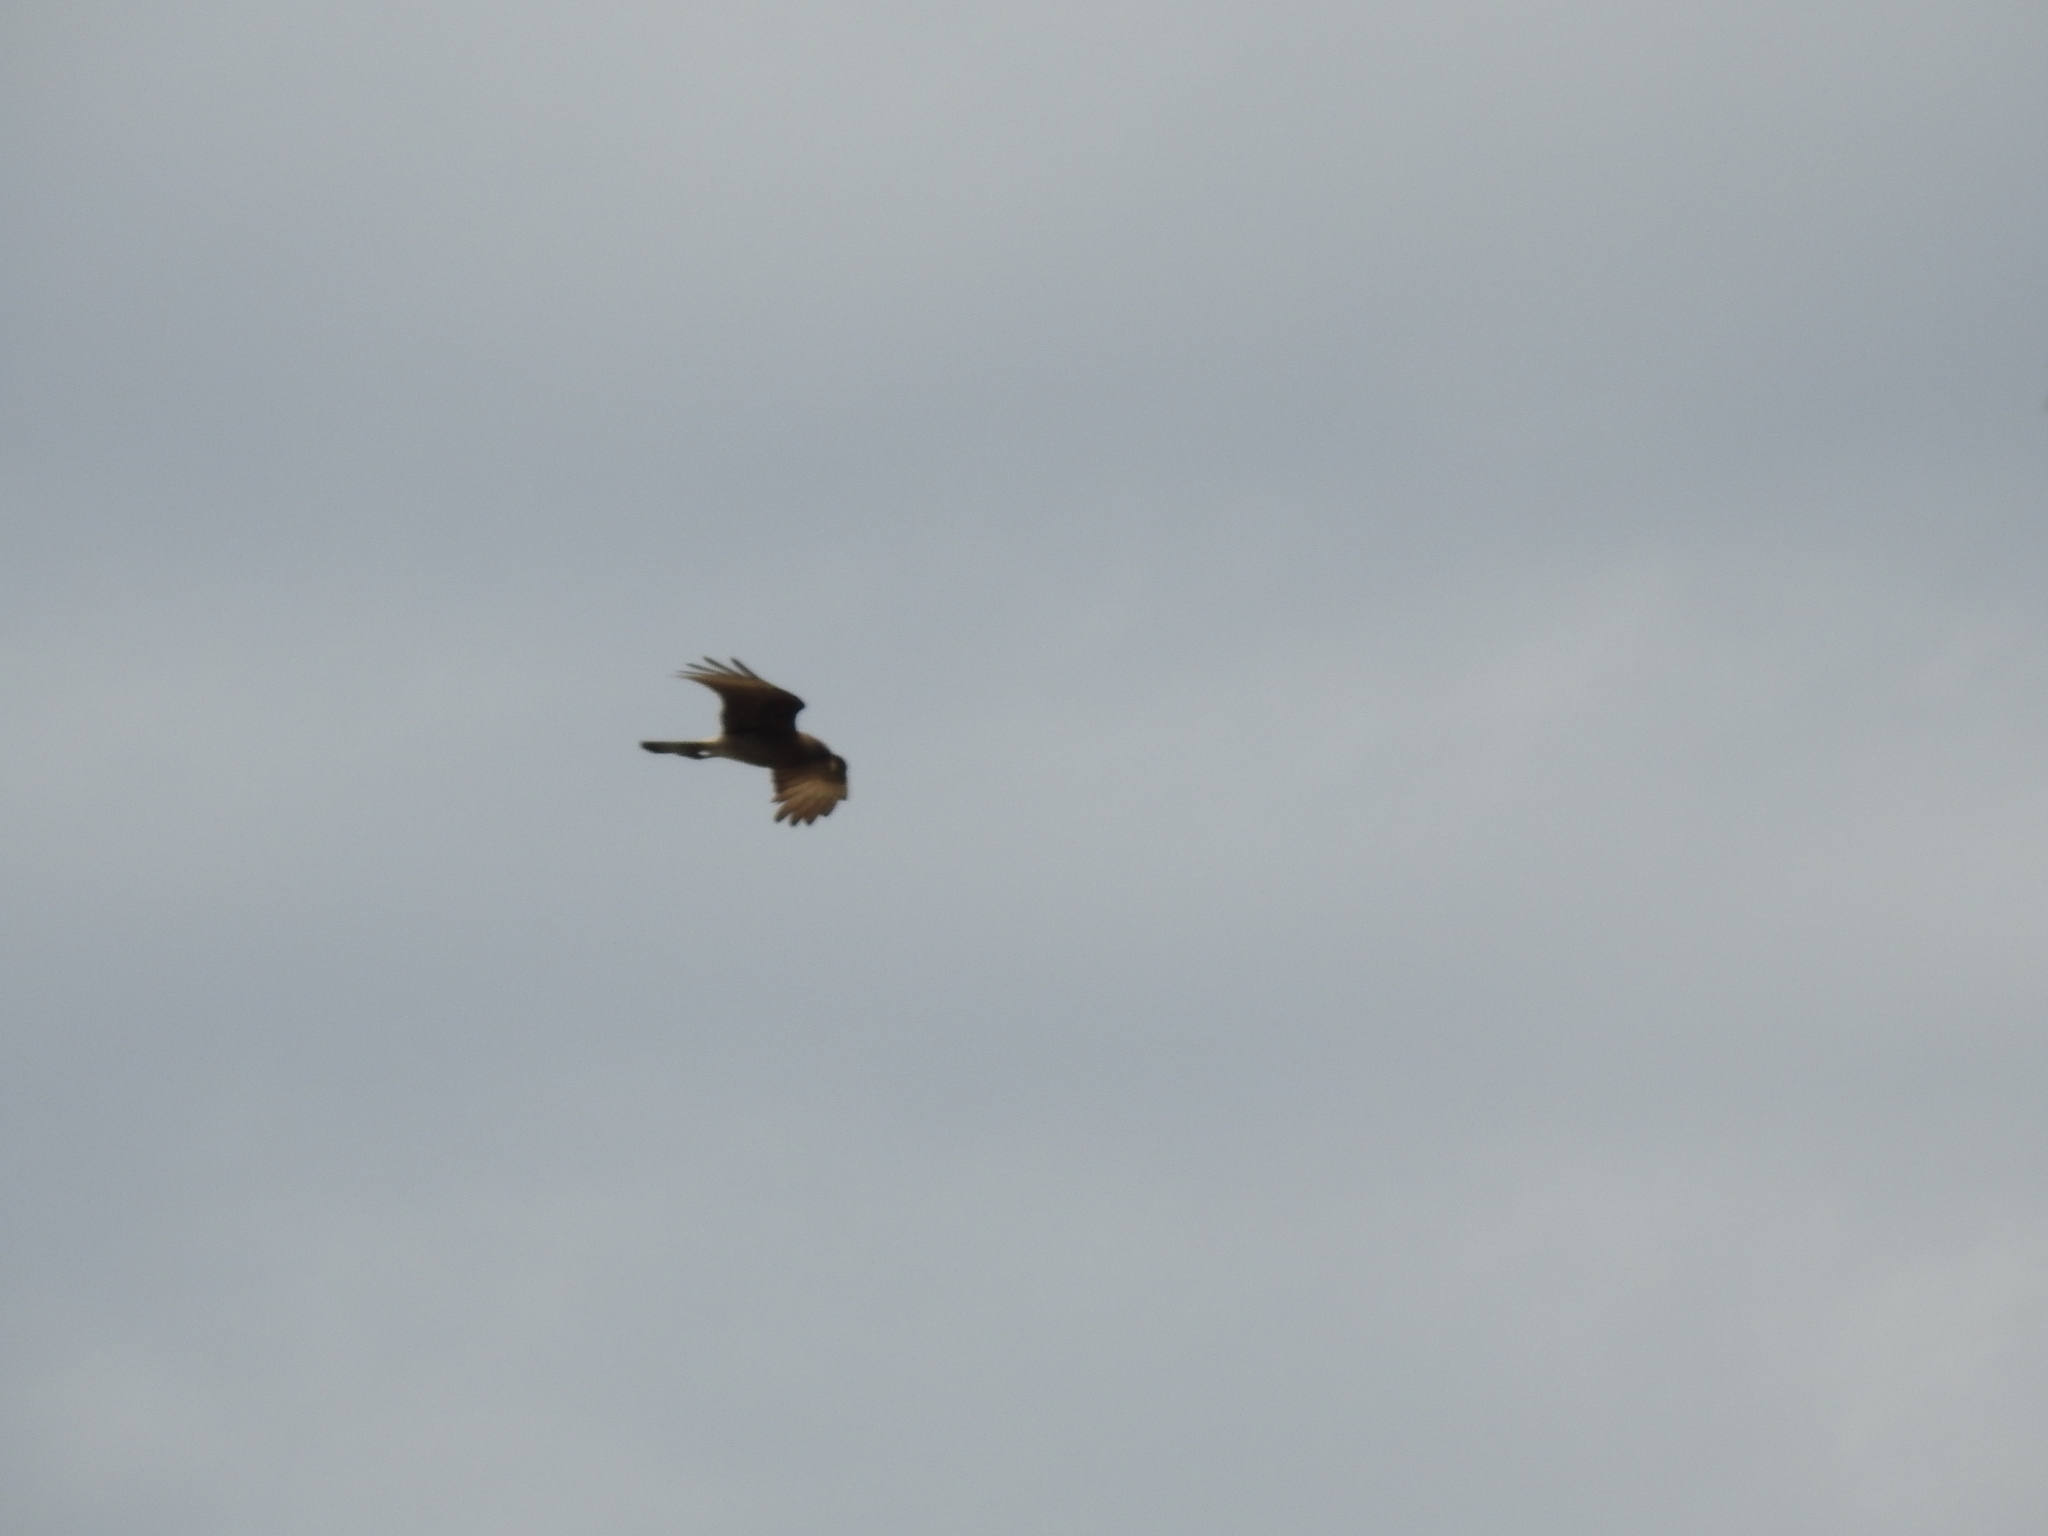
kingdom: Animalia
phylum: Chordata
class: Aves
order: Falconiformes
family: Falconidae
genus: Daptrius
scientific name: Daptrius
